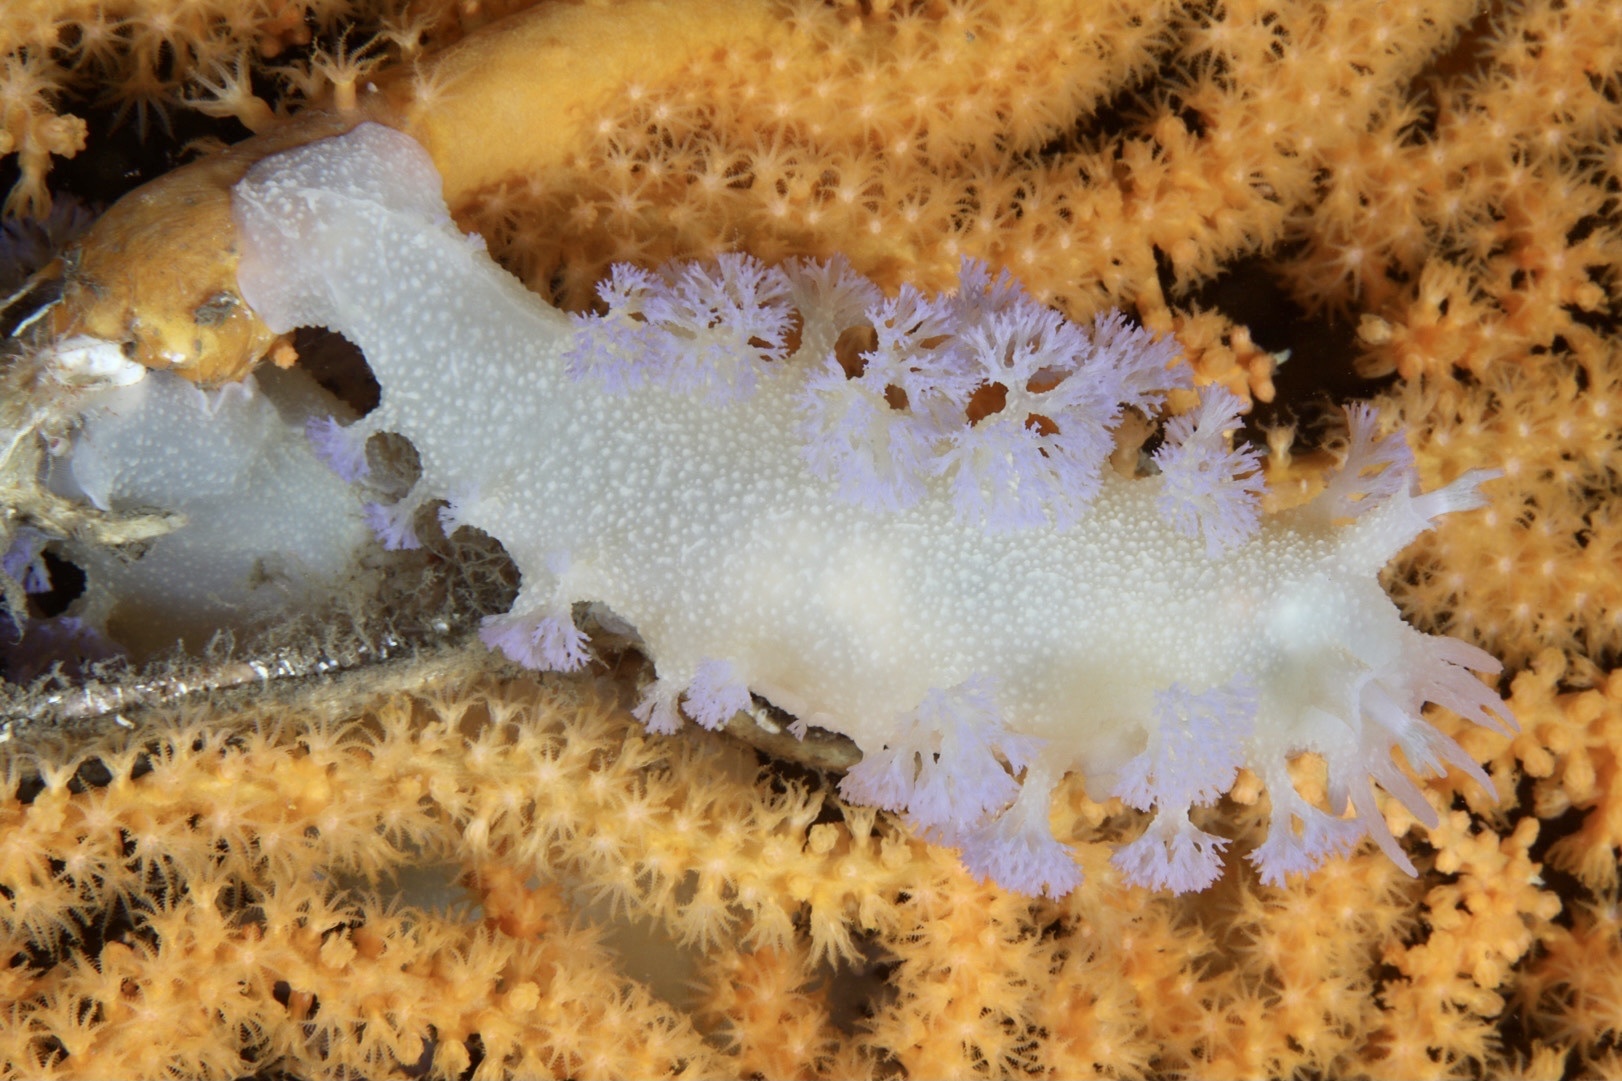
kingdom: Animalia
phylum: Mollusca
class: Gastropoda
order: Nudibranchia
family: Tritoniidae
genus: Tritonia
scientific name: Tritonia griegi
